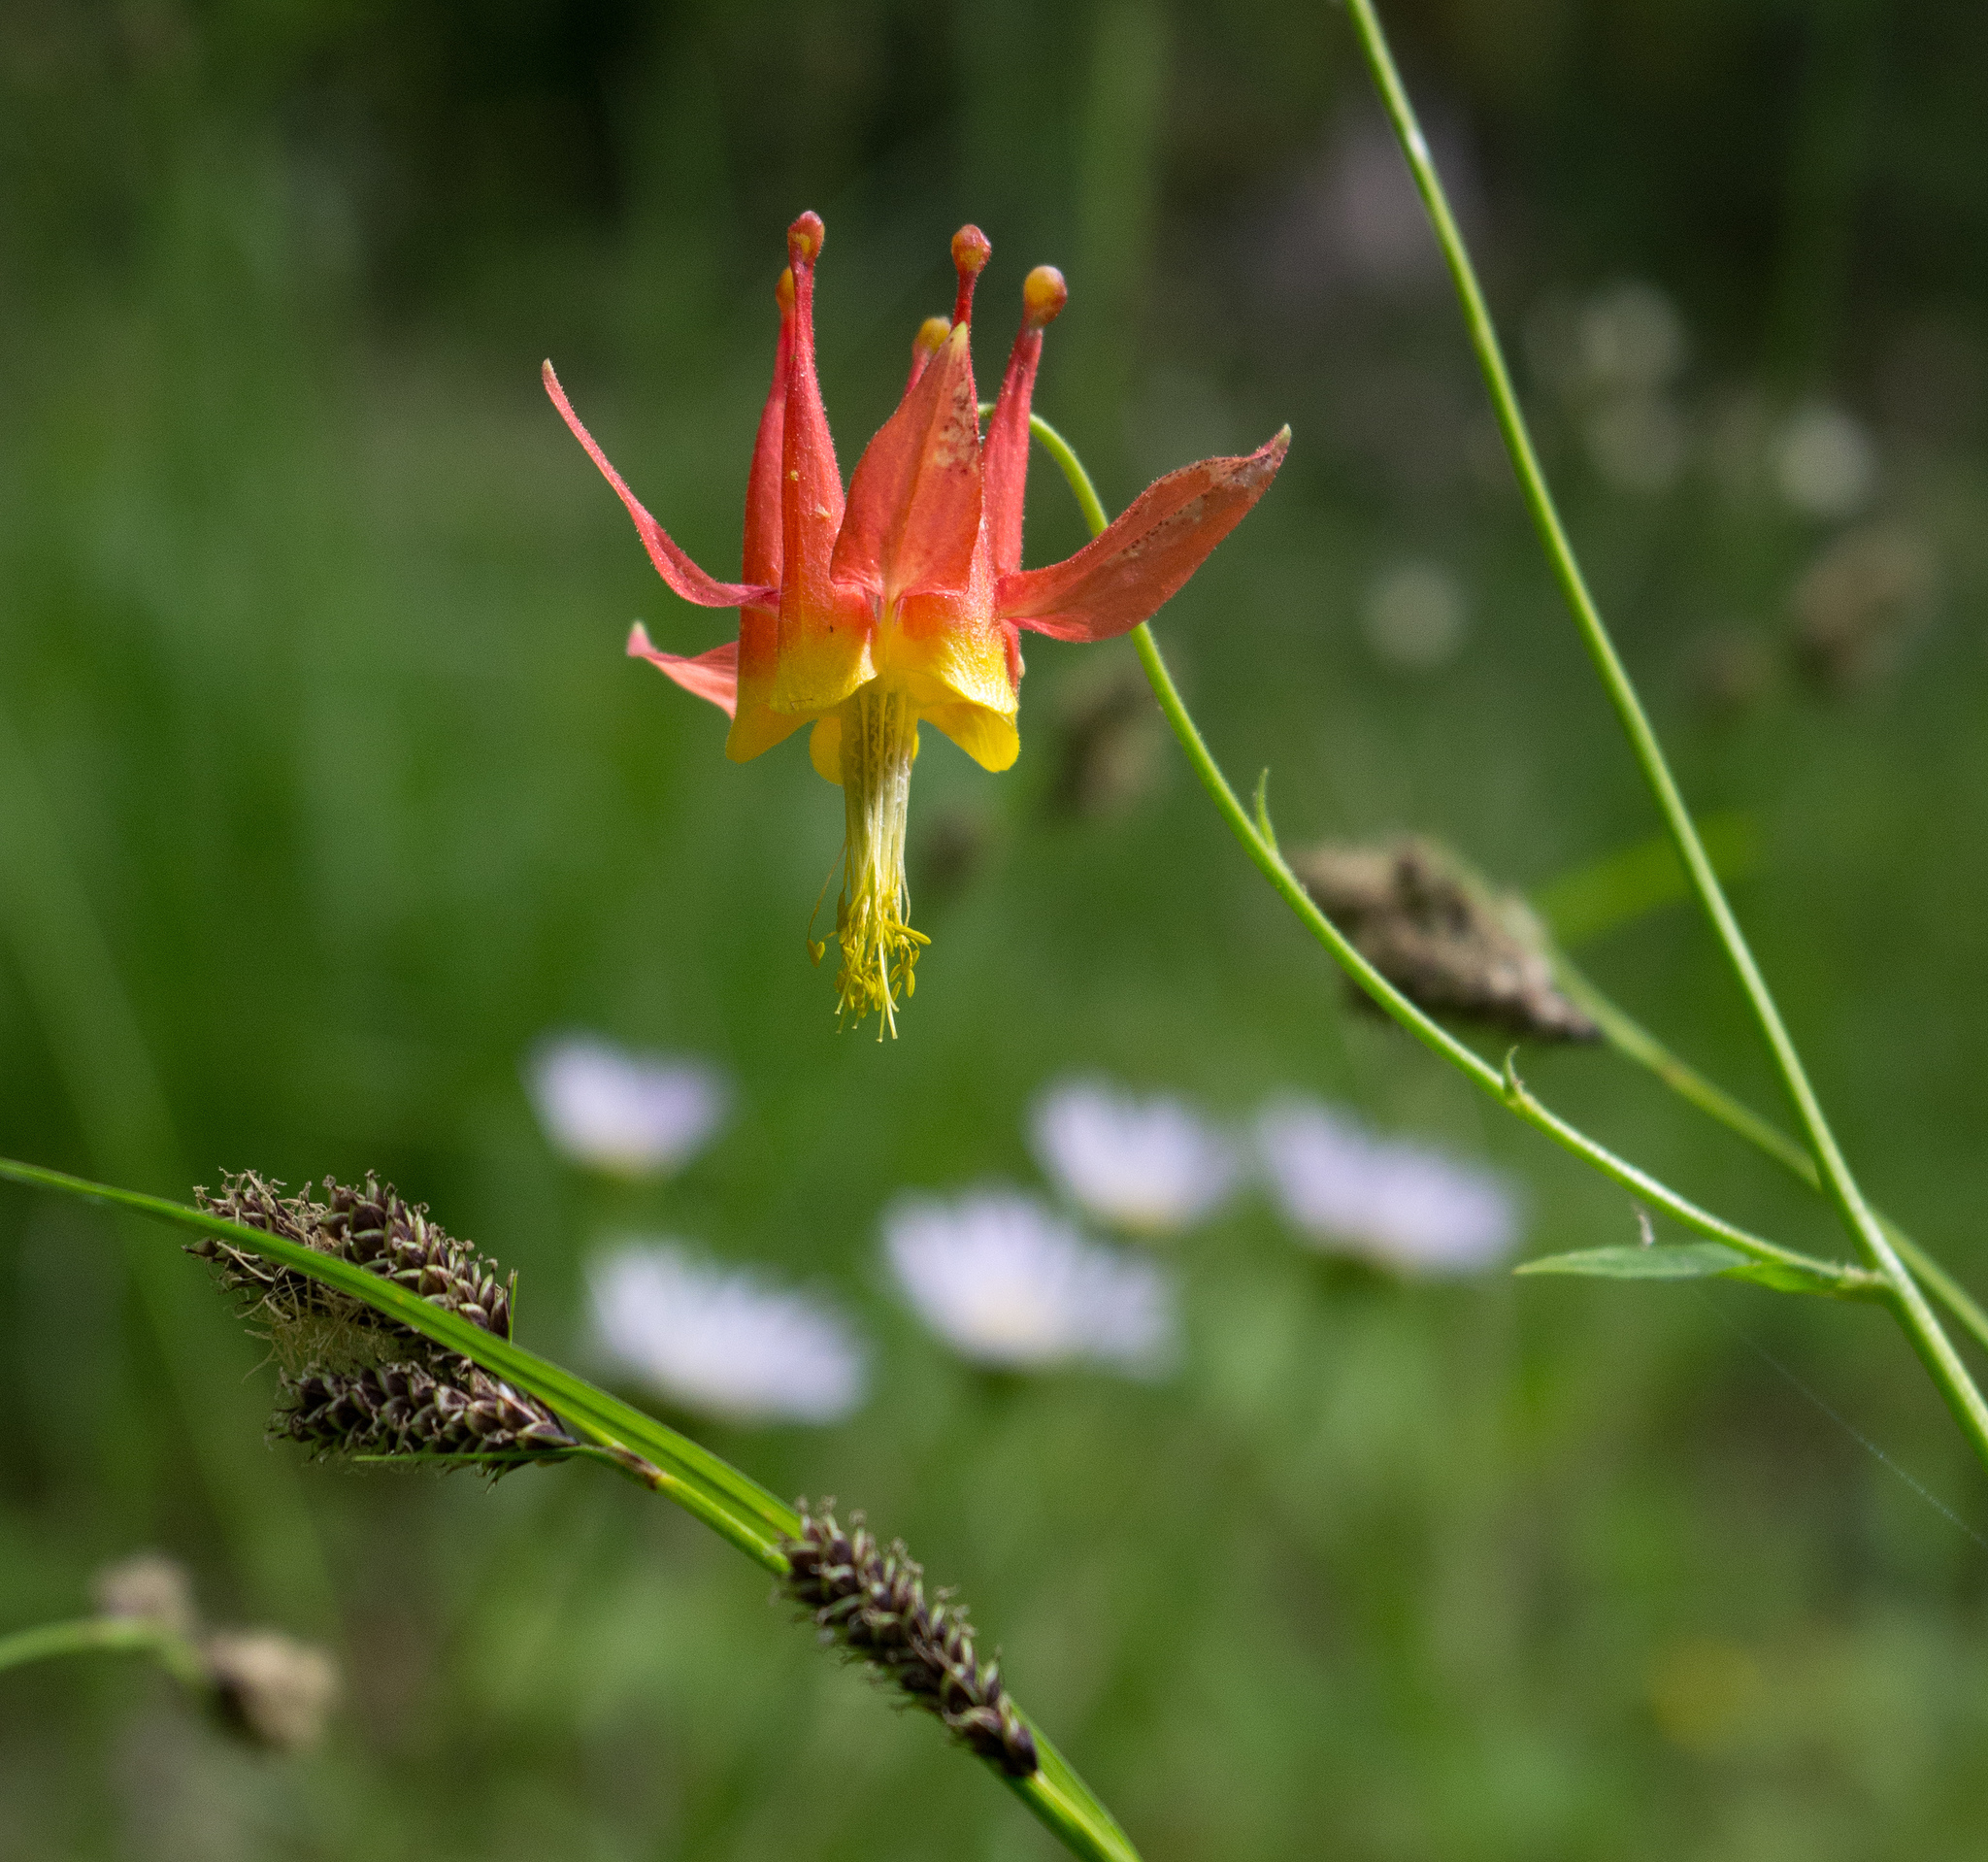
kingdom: Plantae
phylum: Tracheophyta
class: Magnoliopsida
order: Ranunculales
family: Ranunculaceae
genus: Aquilegia
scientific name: Aquilegia formosa
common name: Sitka columbine
